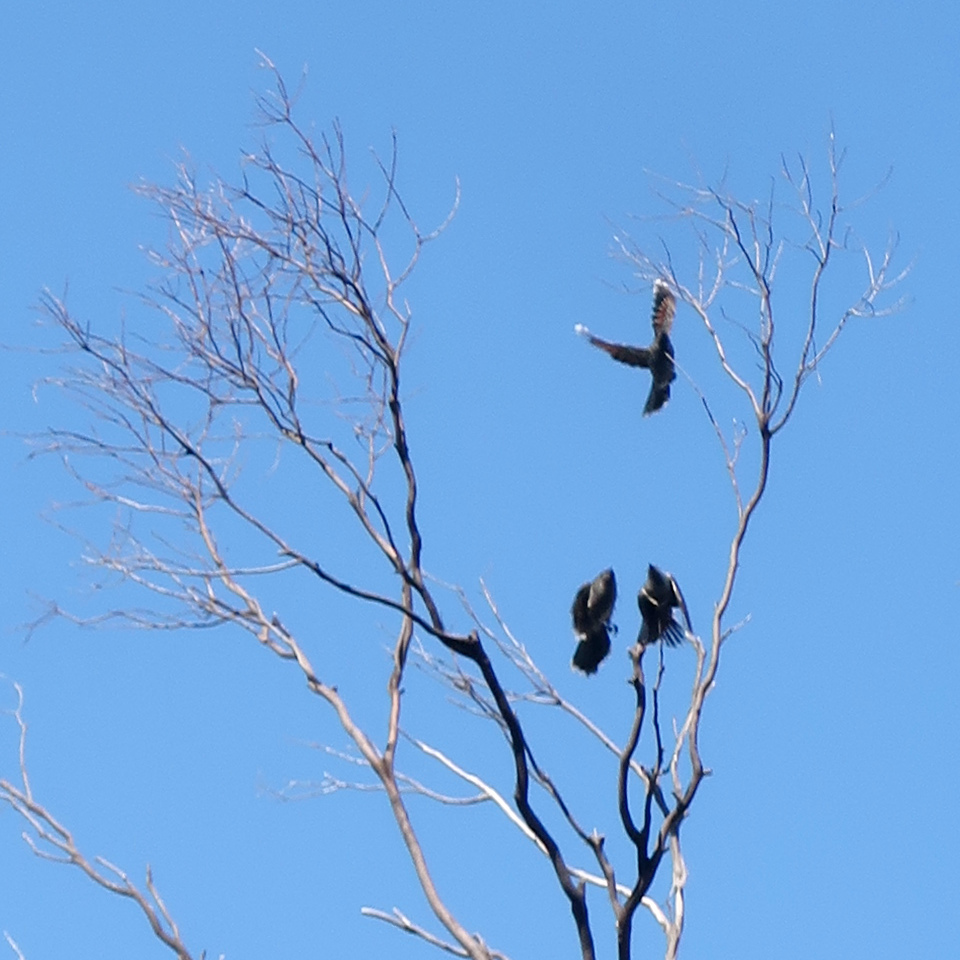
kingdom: Animalia
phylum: Chordata
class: Aves
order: Passeriformes
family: Meliphagidae
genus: Anthochaera
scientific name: Anthochaera chrysoptera
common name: Little wattlebird
